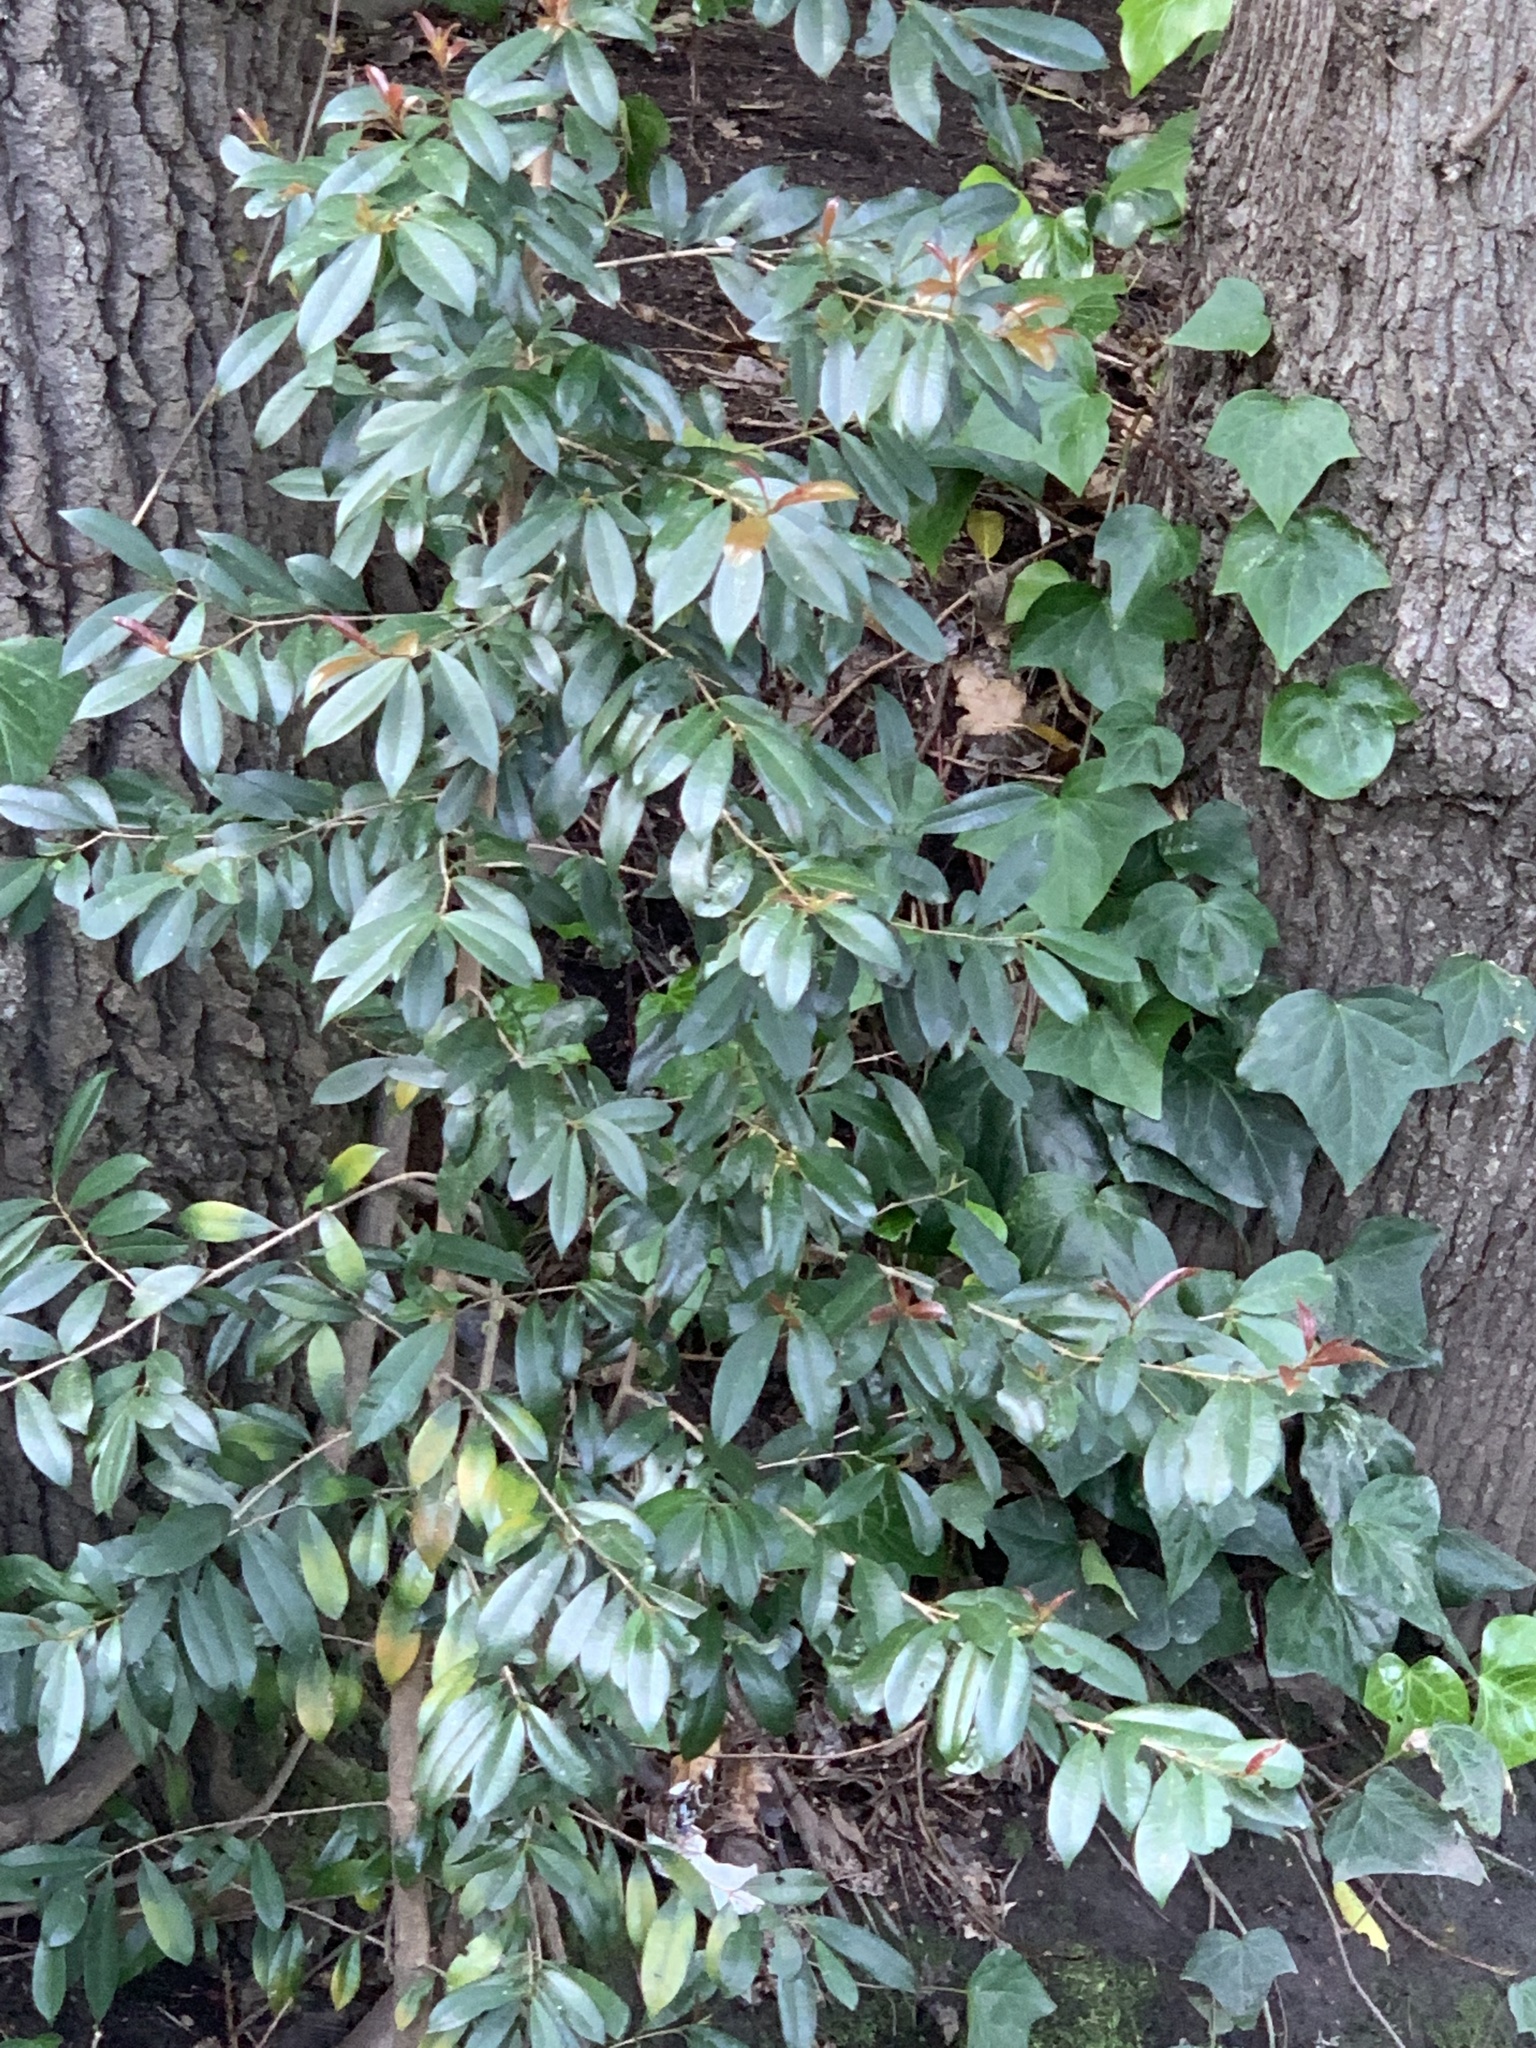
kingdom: Plantae
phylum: Tracheophyta
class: Magnoliopsida
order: Myrtales
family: Myrtaceae
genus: Syzygium
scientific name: Syzygium australe
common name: Australian brush-cherry
